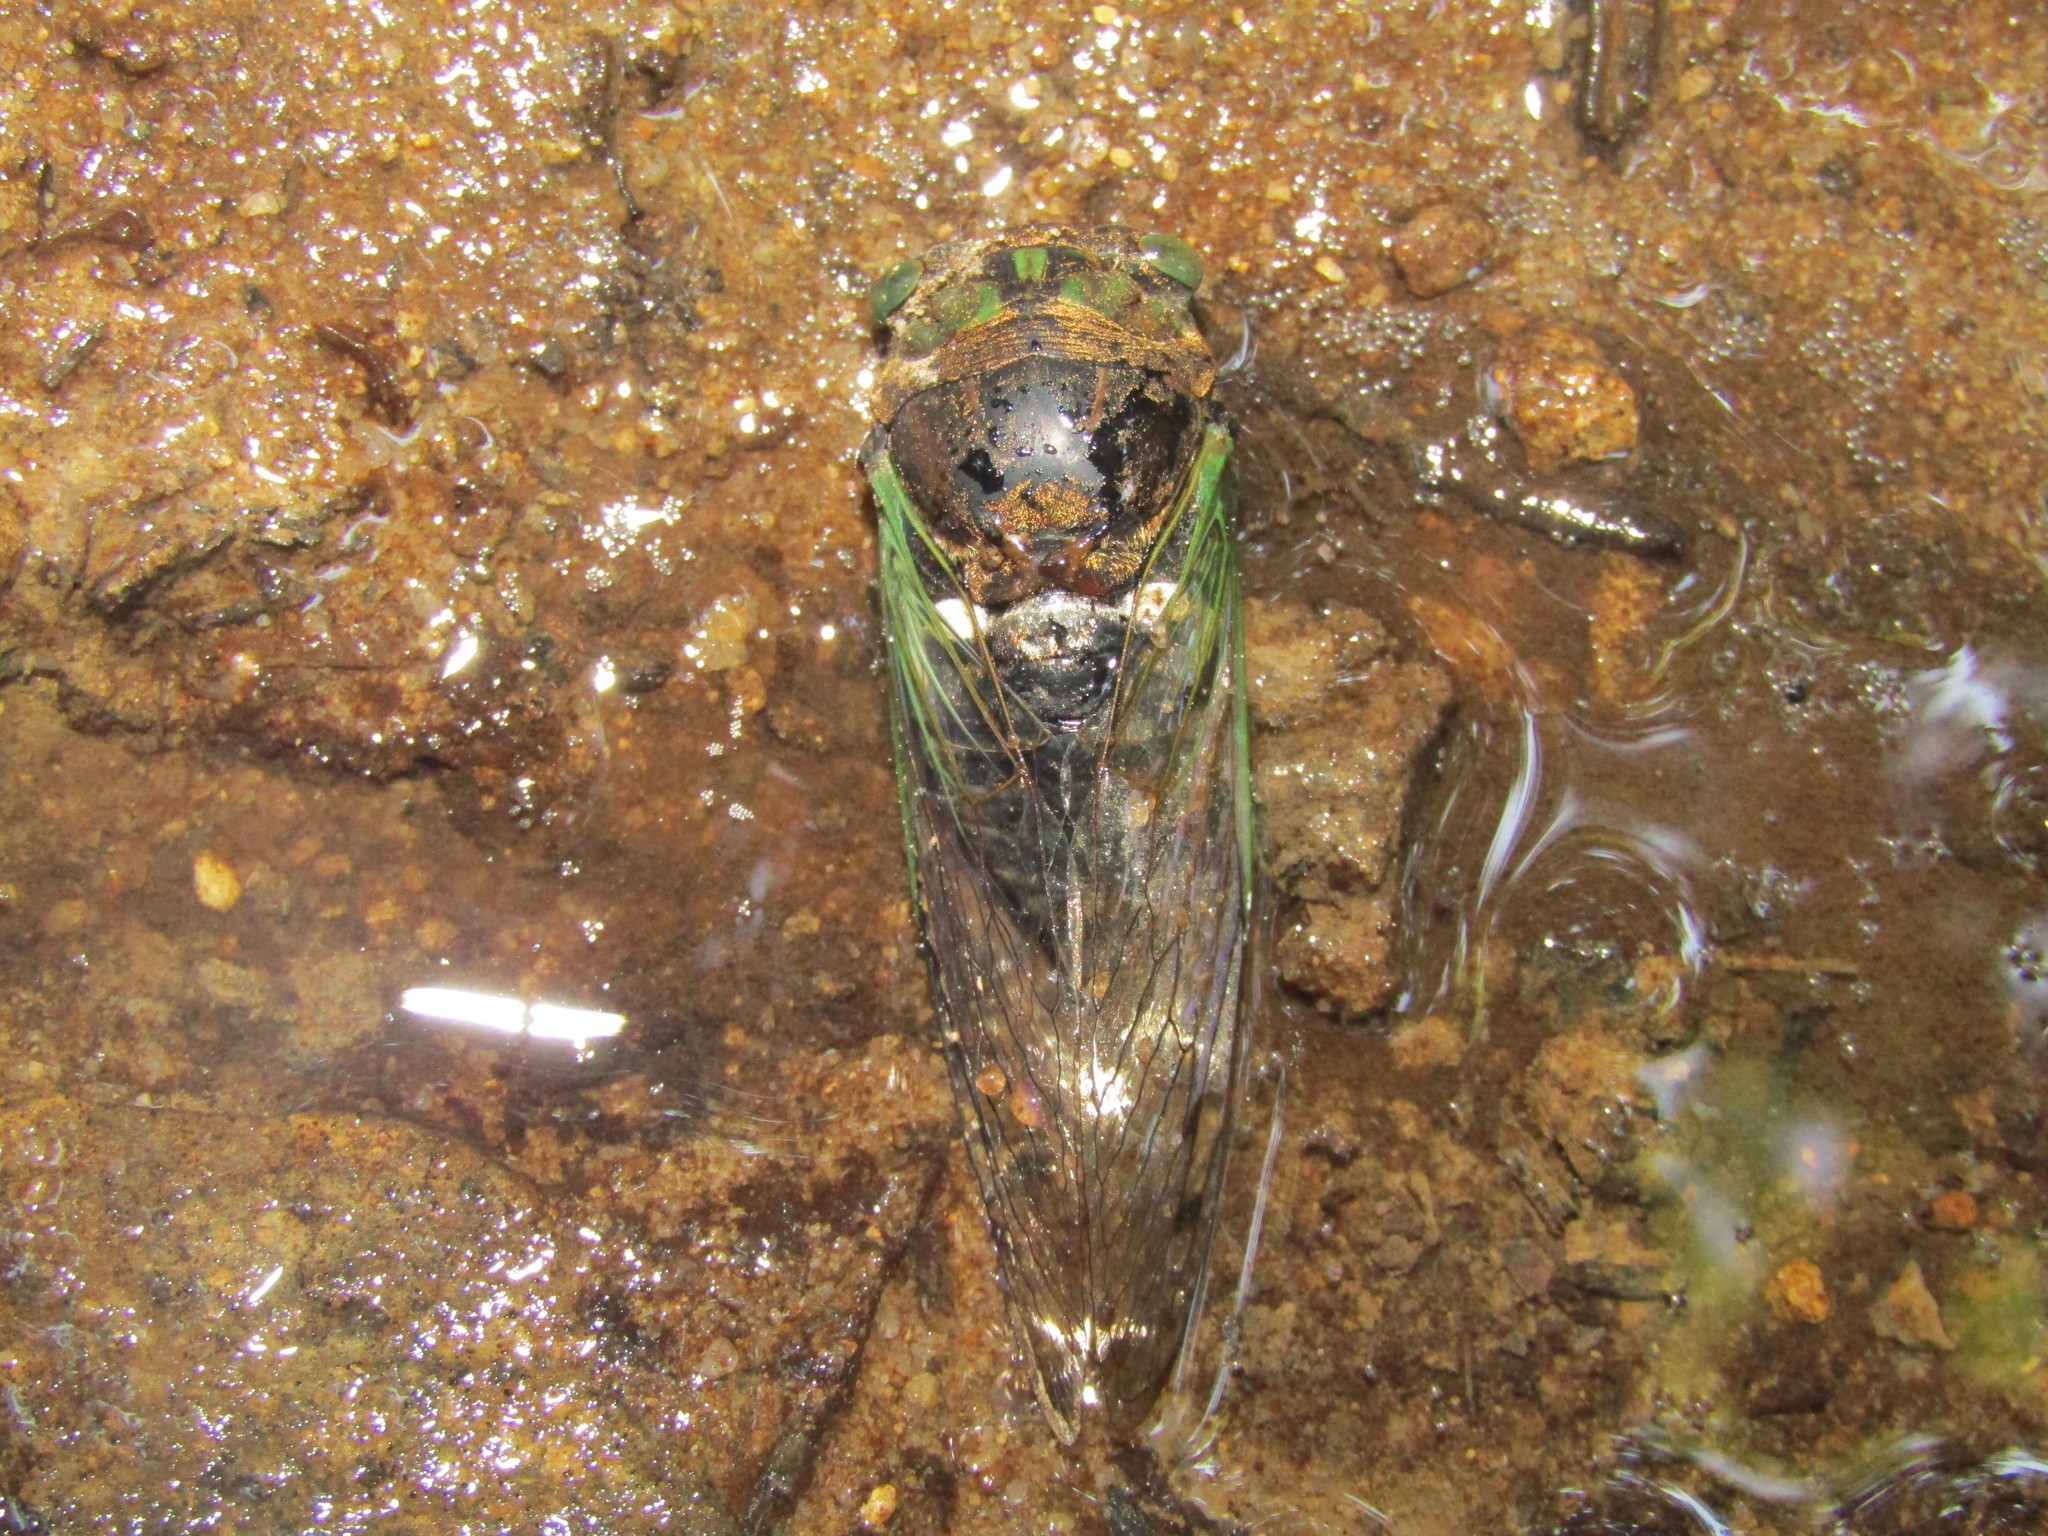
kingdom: Animalia
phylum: Arthropoda
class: Insecta
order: Hemiptera
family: Cicadidae
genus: Neotibicen
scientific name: Neotibicen tibicen
